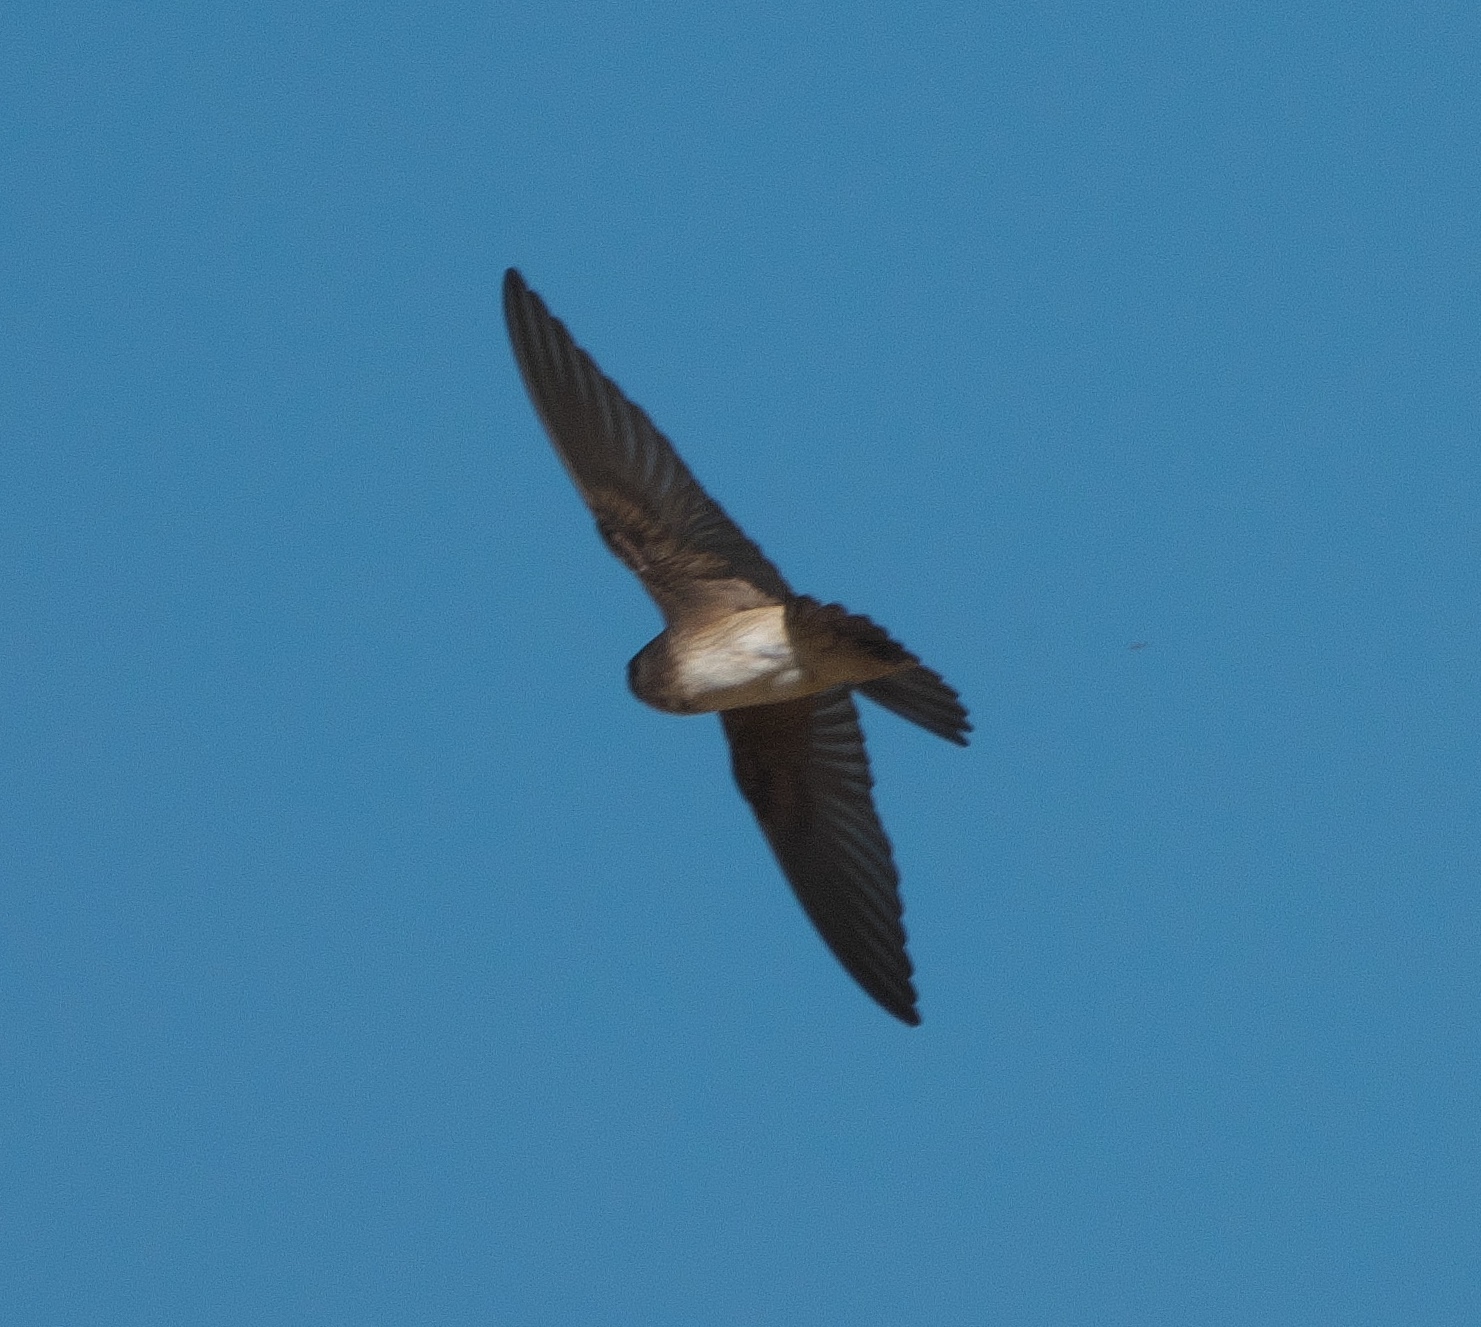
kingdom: Animalia
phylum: Chordata
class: Aves
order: Passeriformes
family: Hirundinidae
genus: Petrochelidon
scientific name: Petrochelidon nigricans
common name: Tree martin
